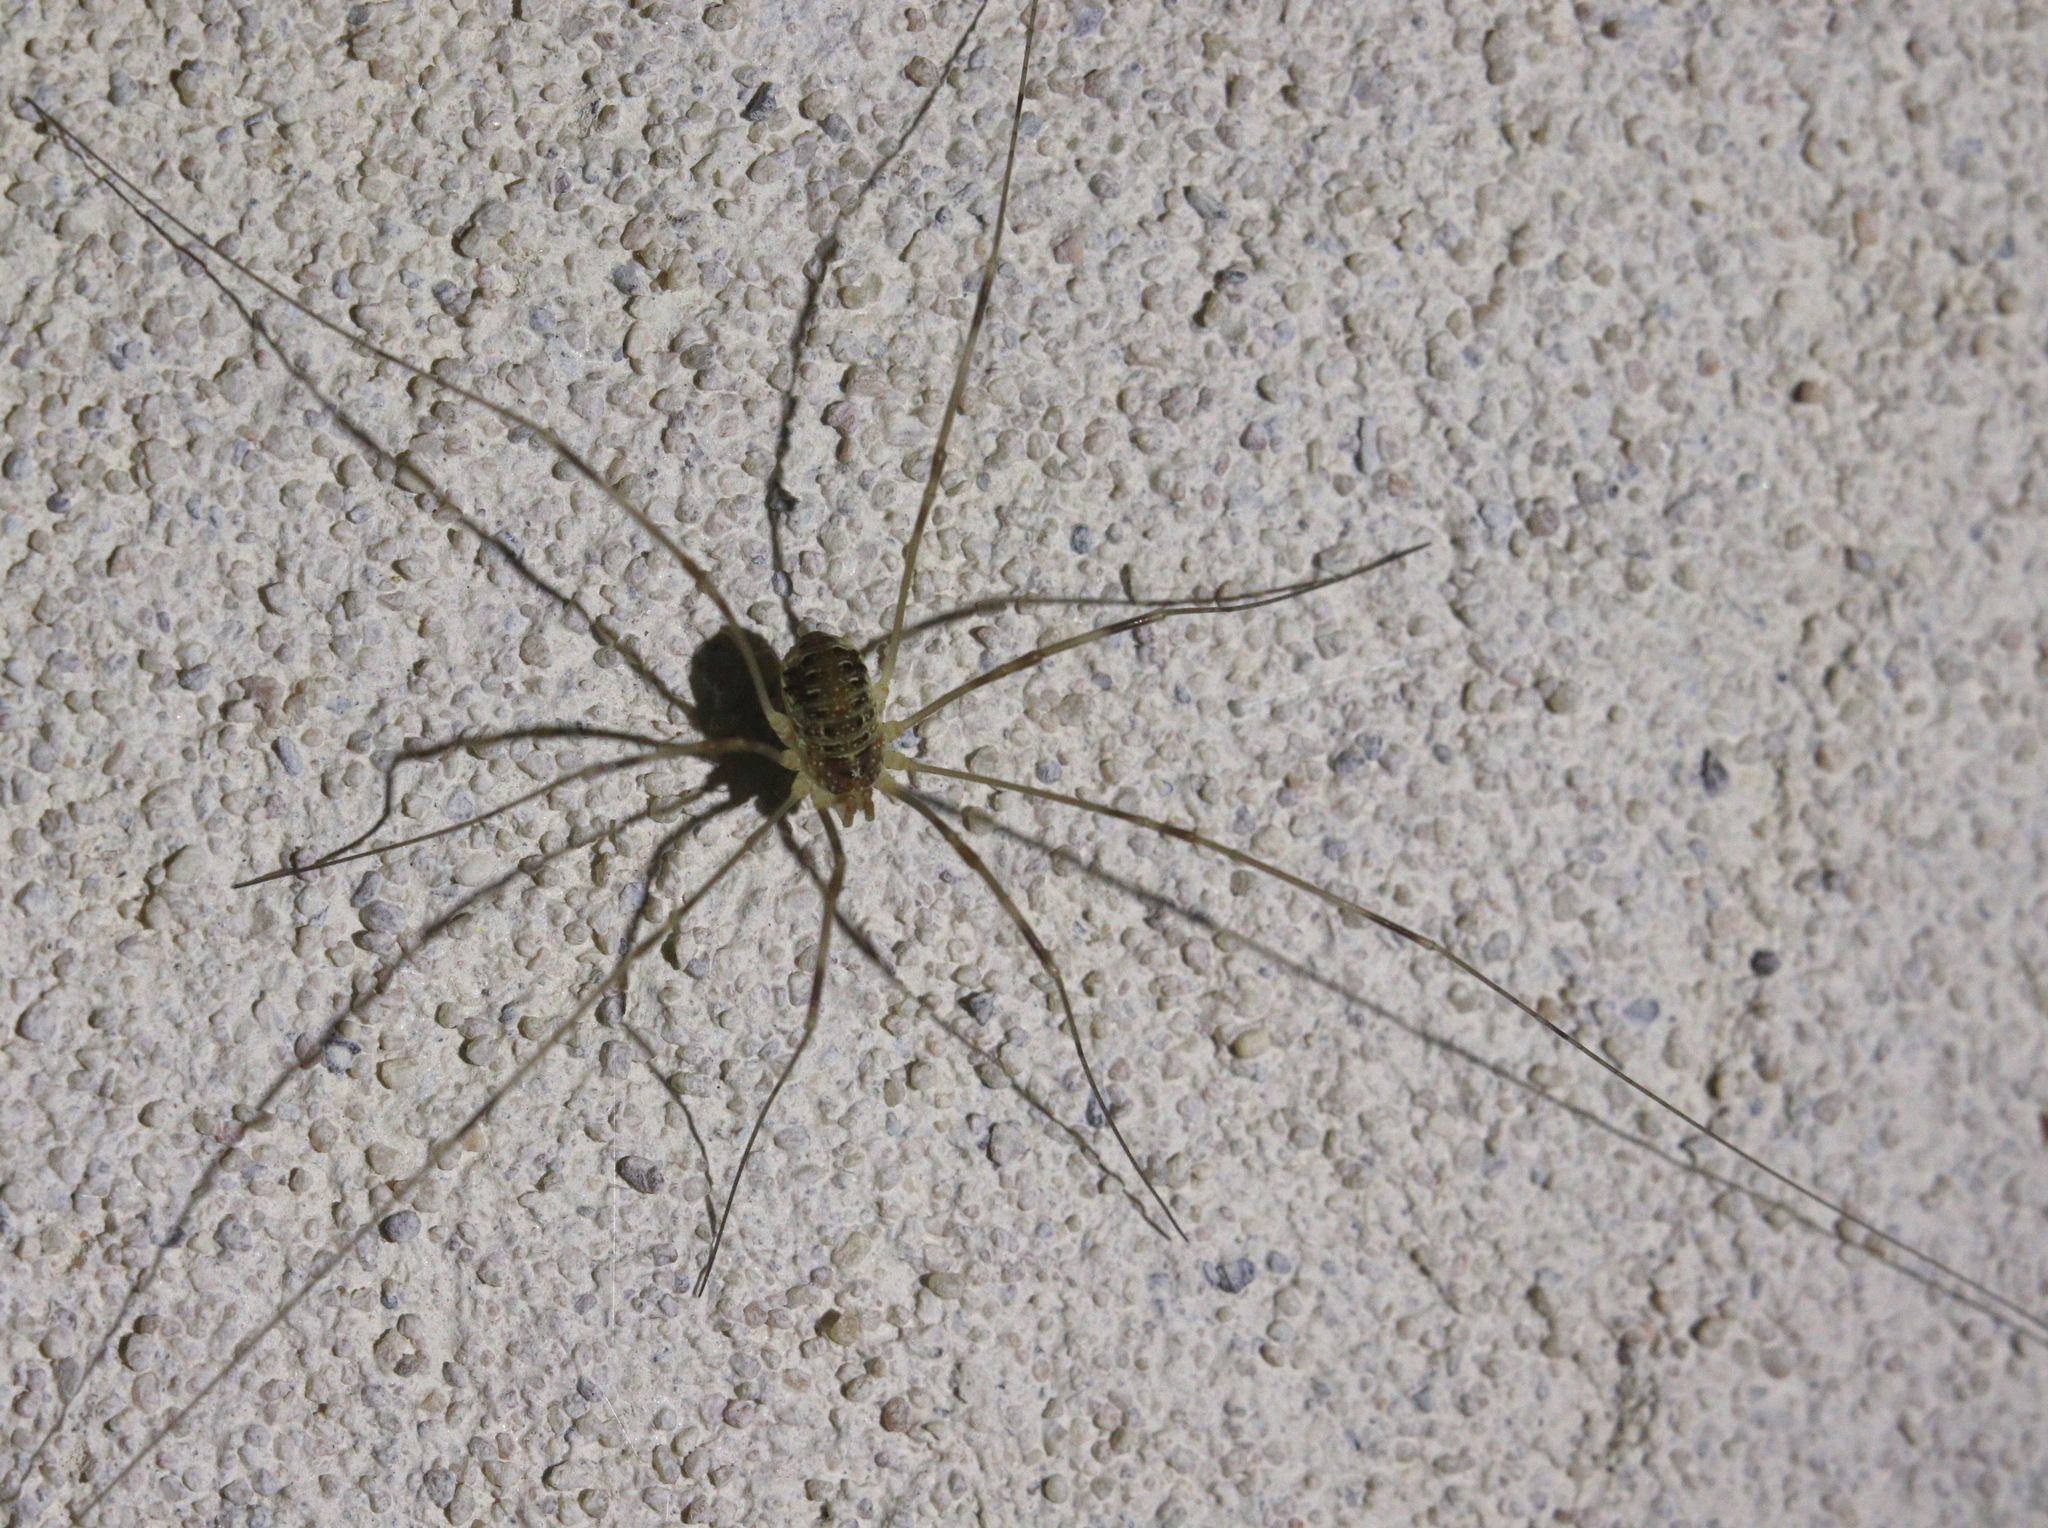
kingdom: Animalia
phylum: Arthropoda
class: Arachnida
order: Opiliones
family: Phalangiidae
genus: Opilio
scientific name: Opilio canestrinii
